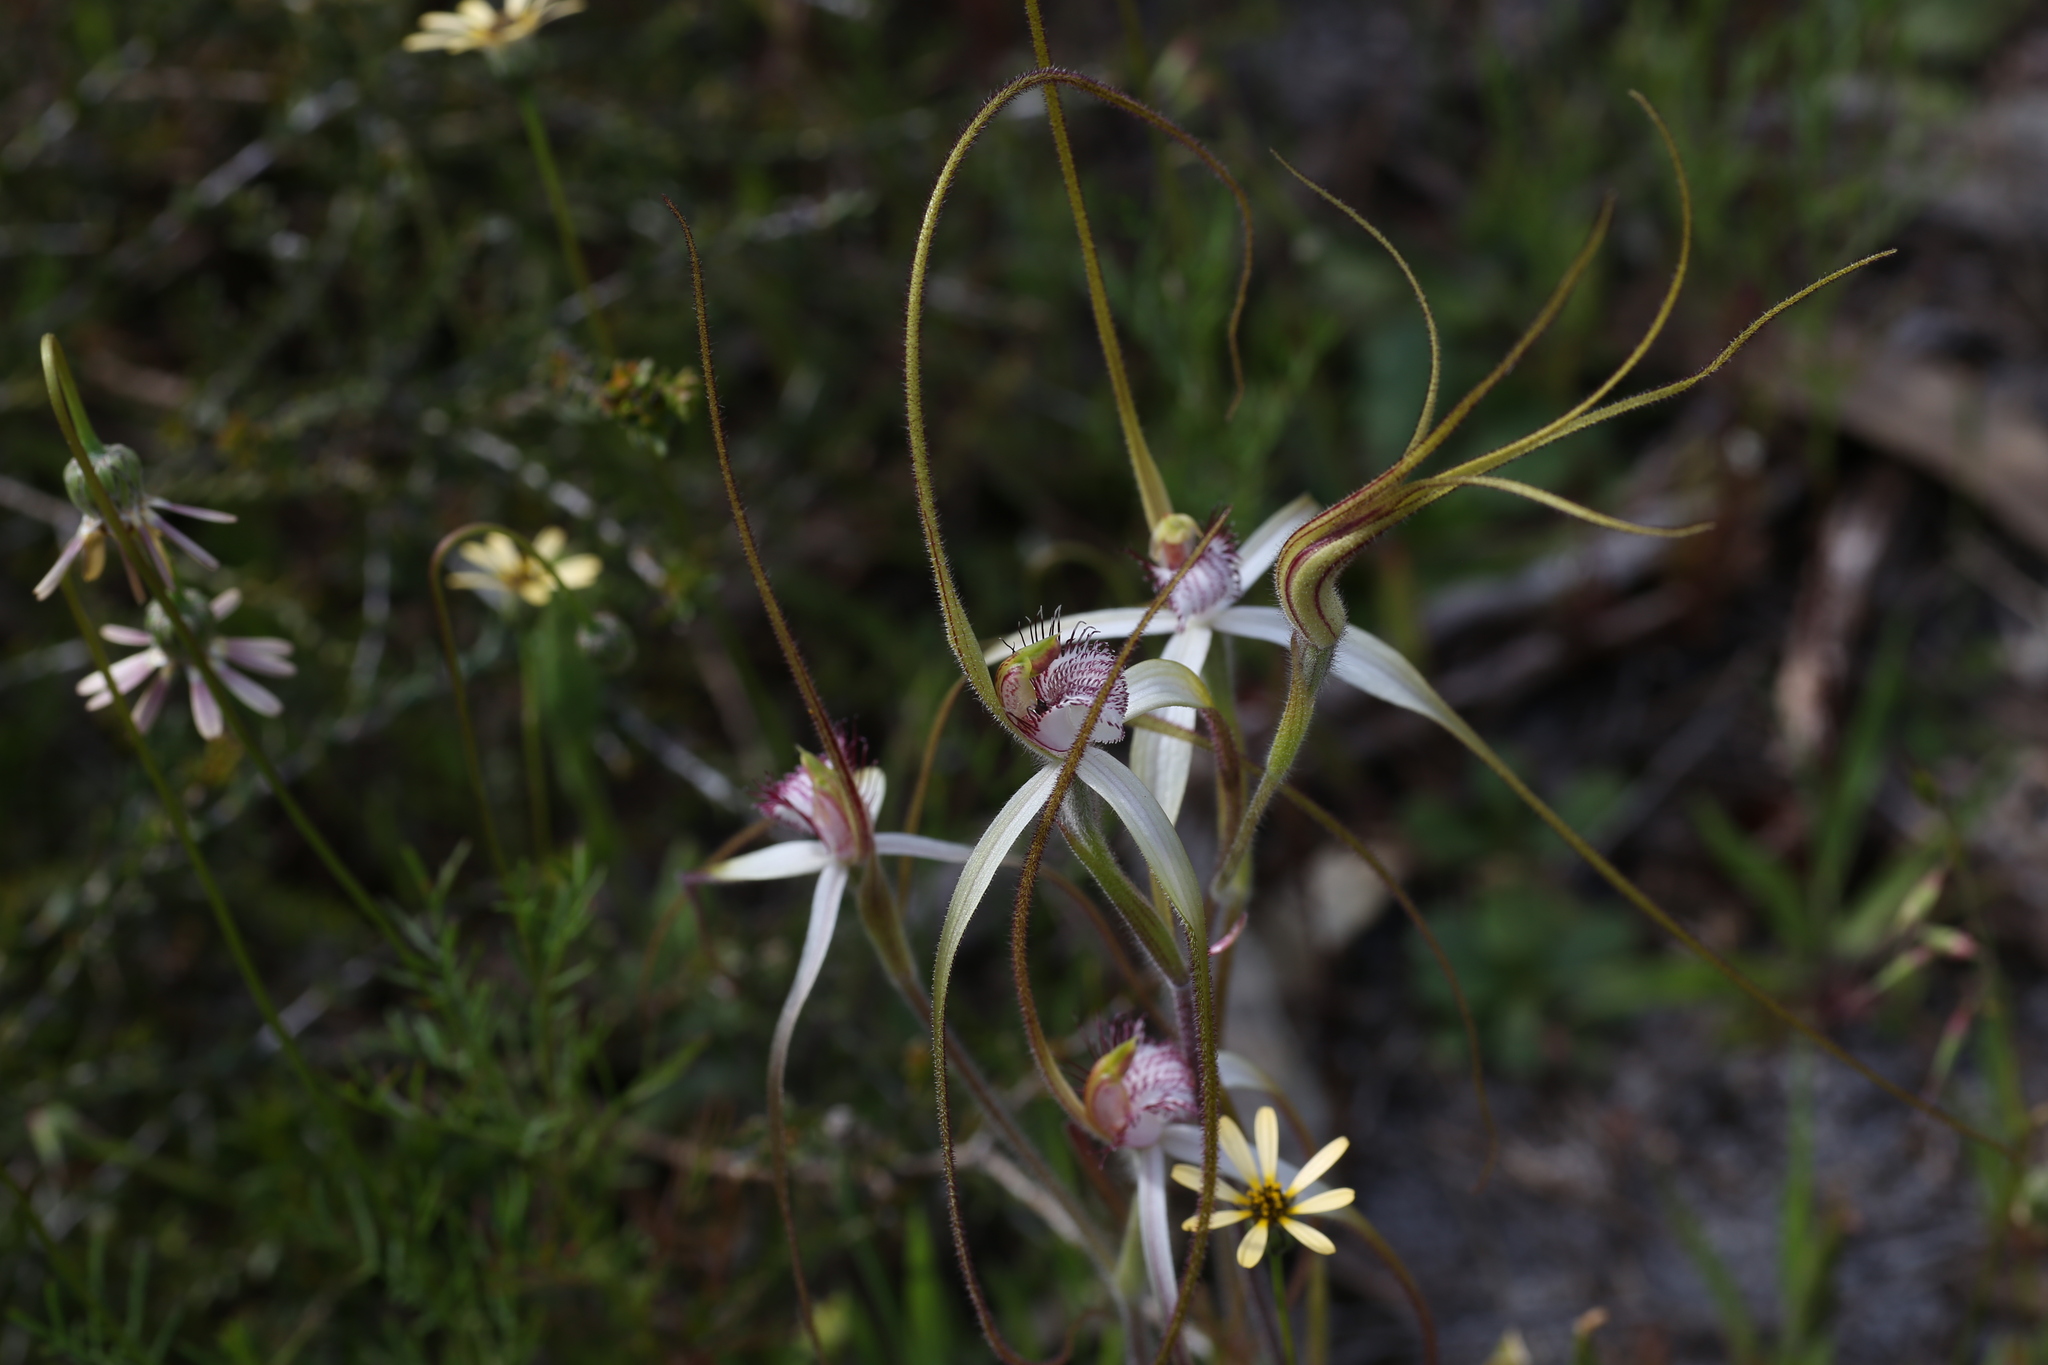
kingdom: Plantae
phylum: Tracheophyta
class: Liliopsida
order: Asparagales
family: Orchidaceae
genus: Caladenia
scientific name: Caladenia longicauda
